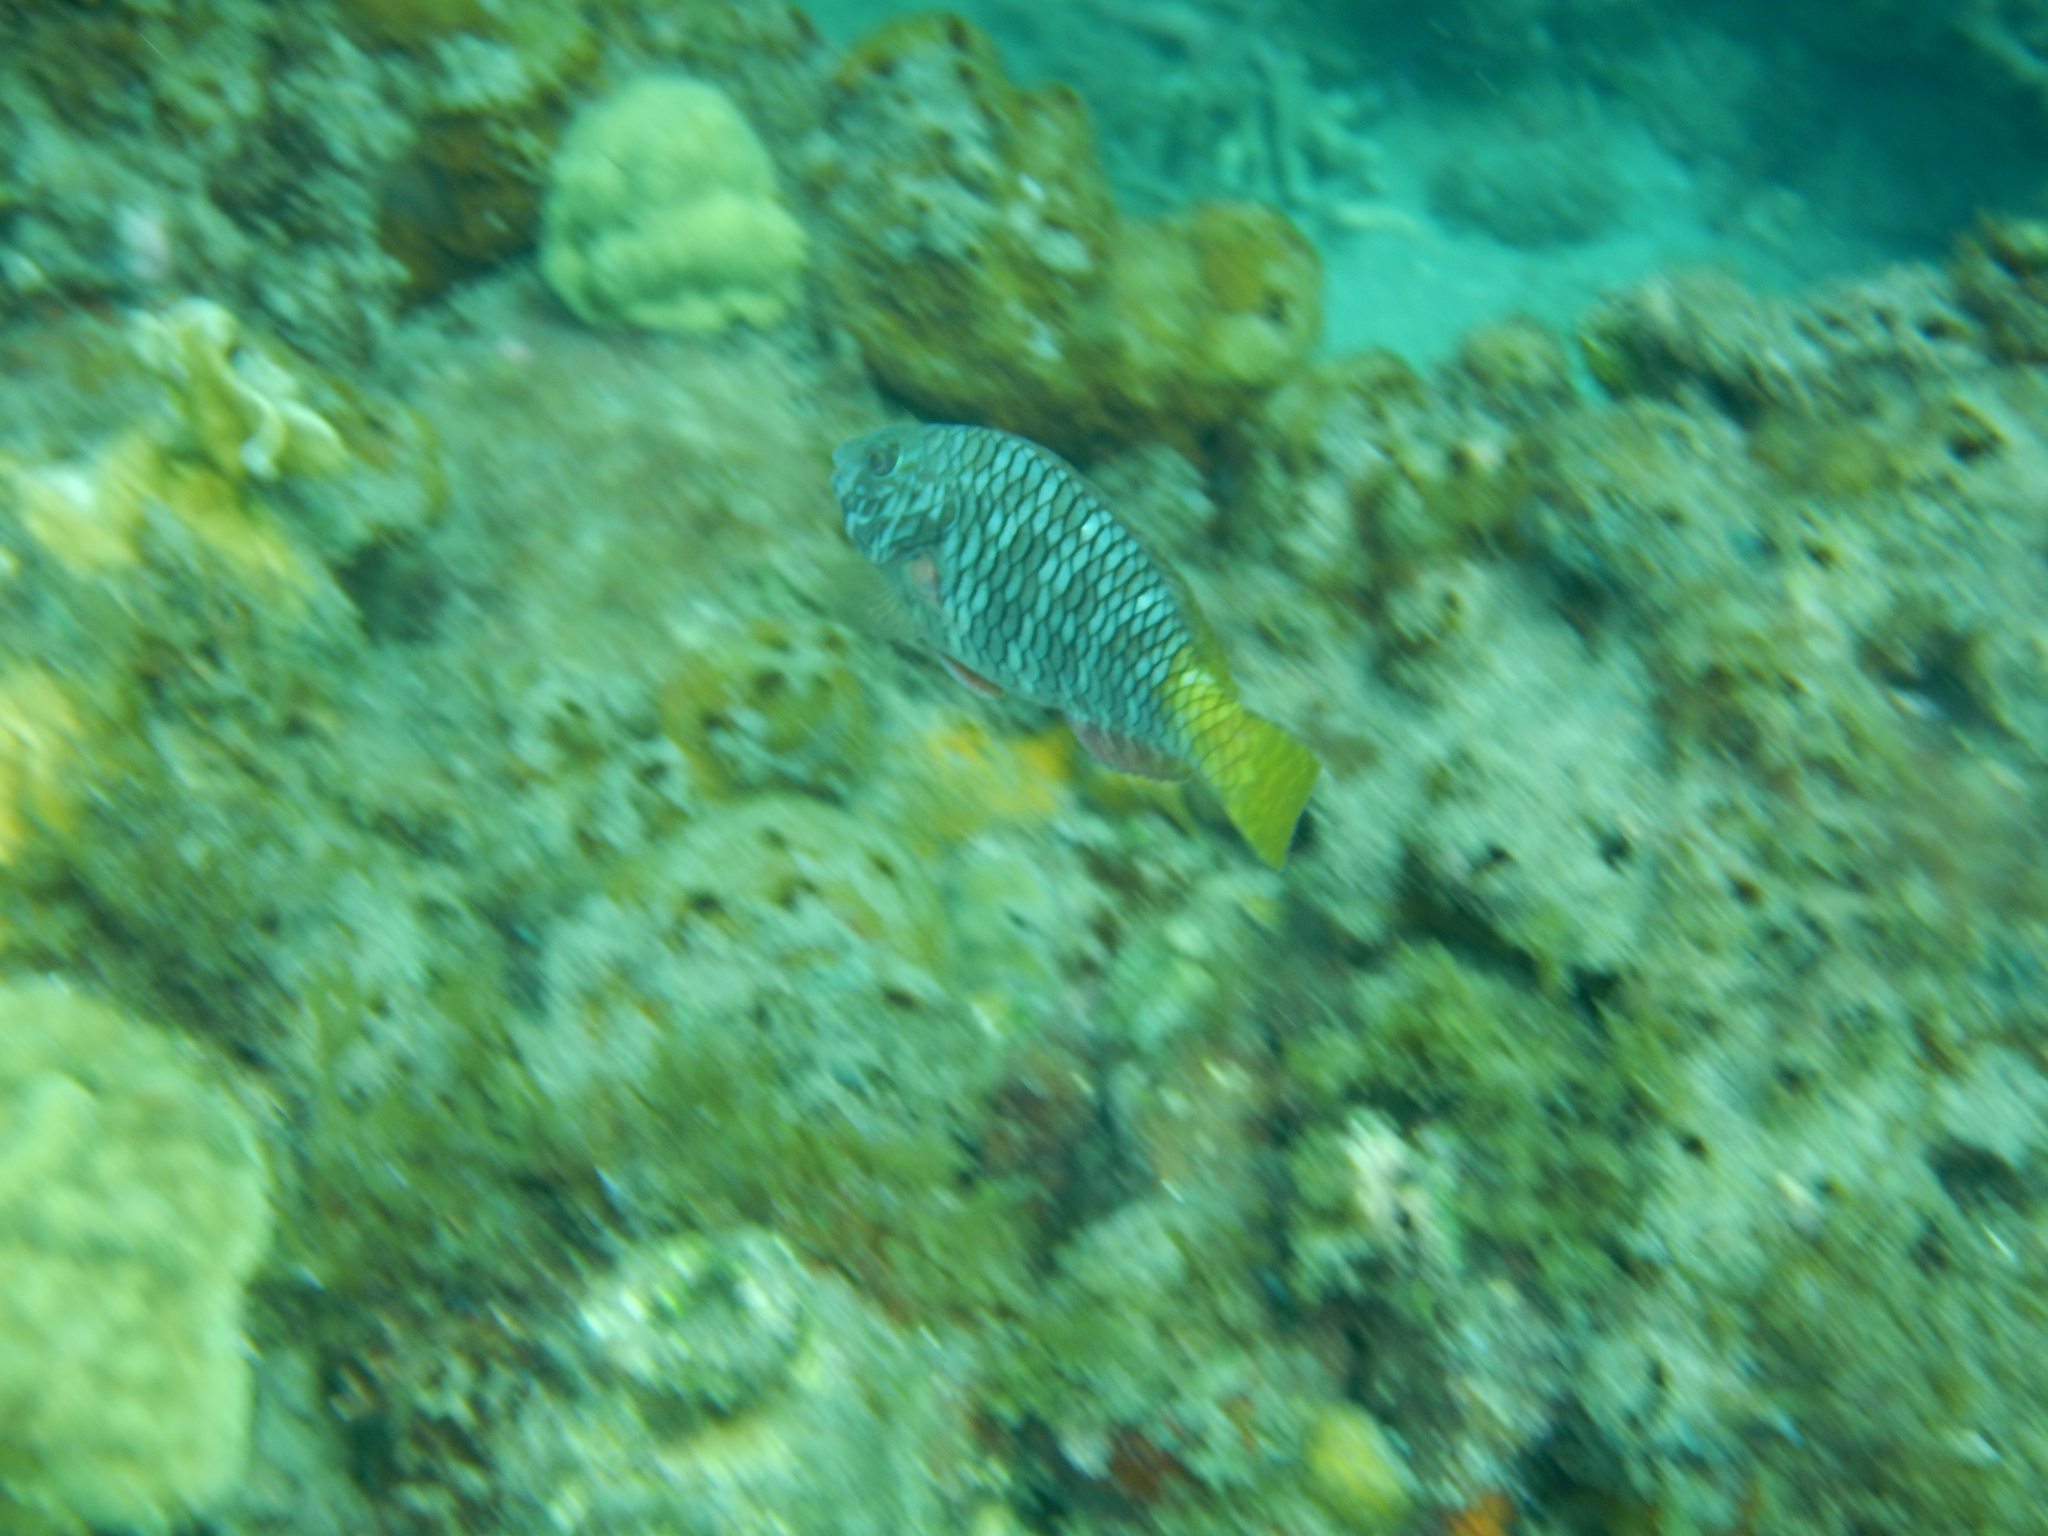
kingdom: Animalia
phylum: Chordata
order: Perciformes
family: Scaridae
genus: Sparisoma
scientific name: Sparisoma rubripinne
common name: Redfin parrotfish
